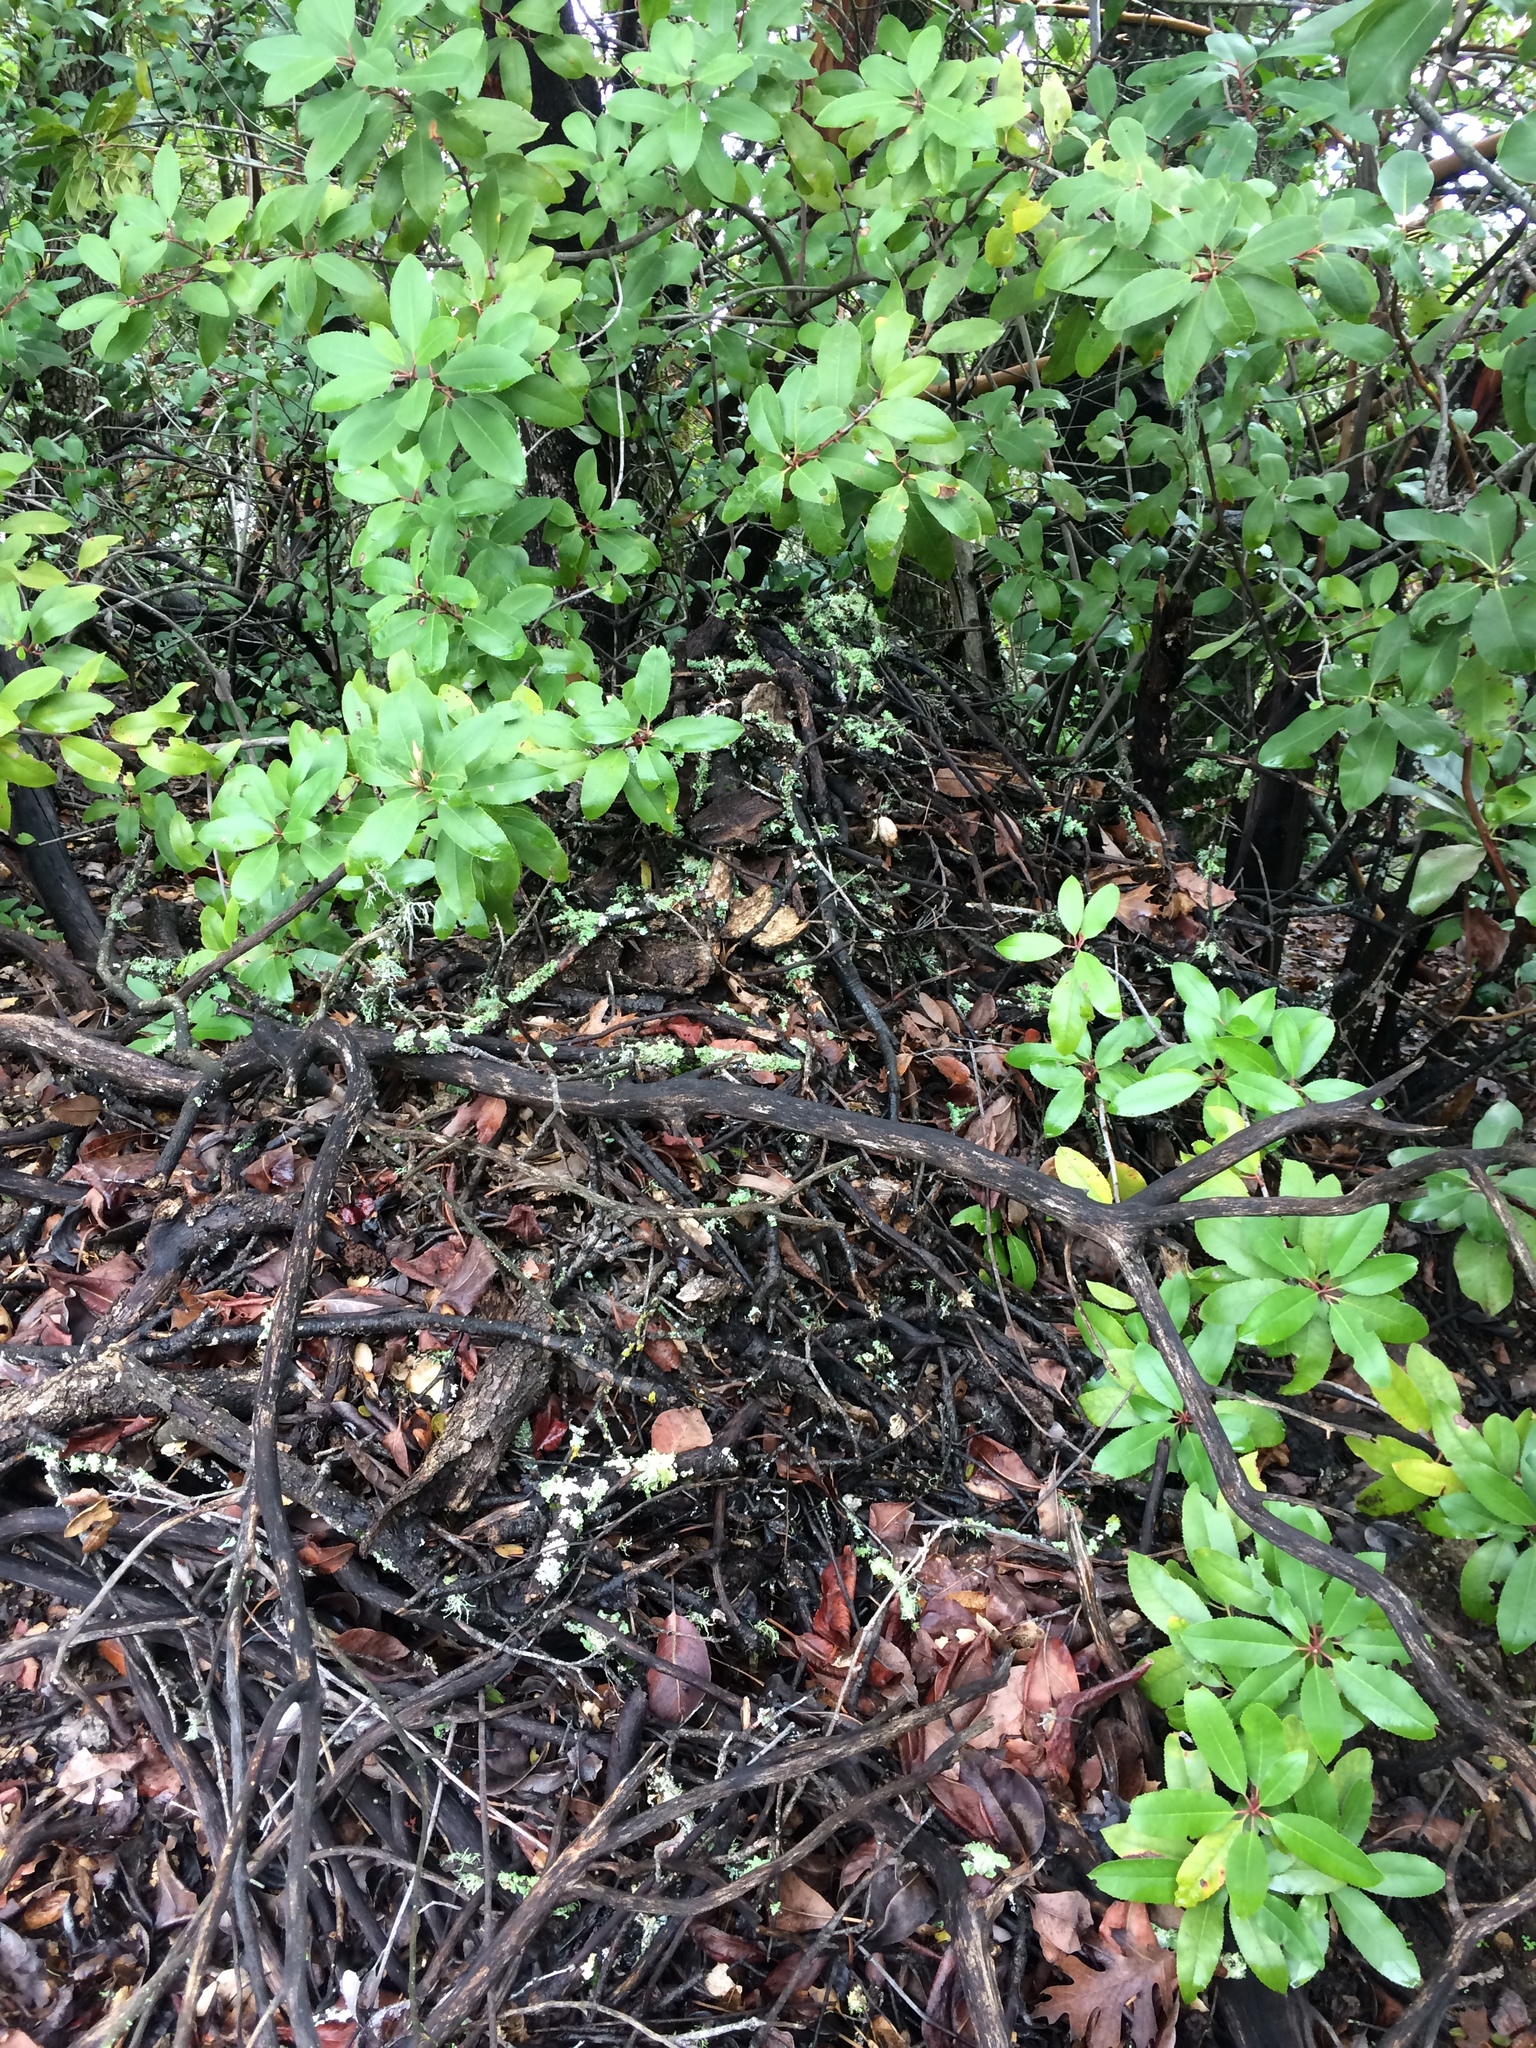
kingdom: Animalia
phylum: Chordata
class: Mammalia
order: Rodentia
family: Cricetidae
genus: Neotoma
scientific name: Neotoma fuscipes
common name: Dusky-footed woodrat
